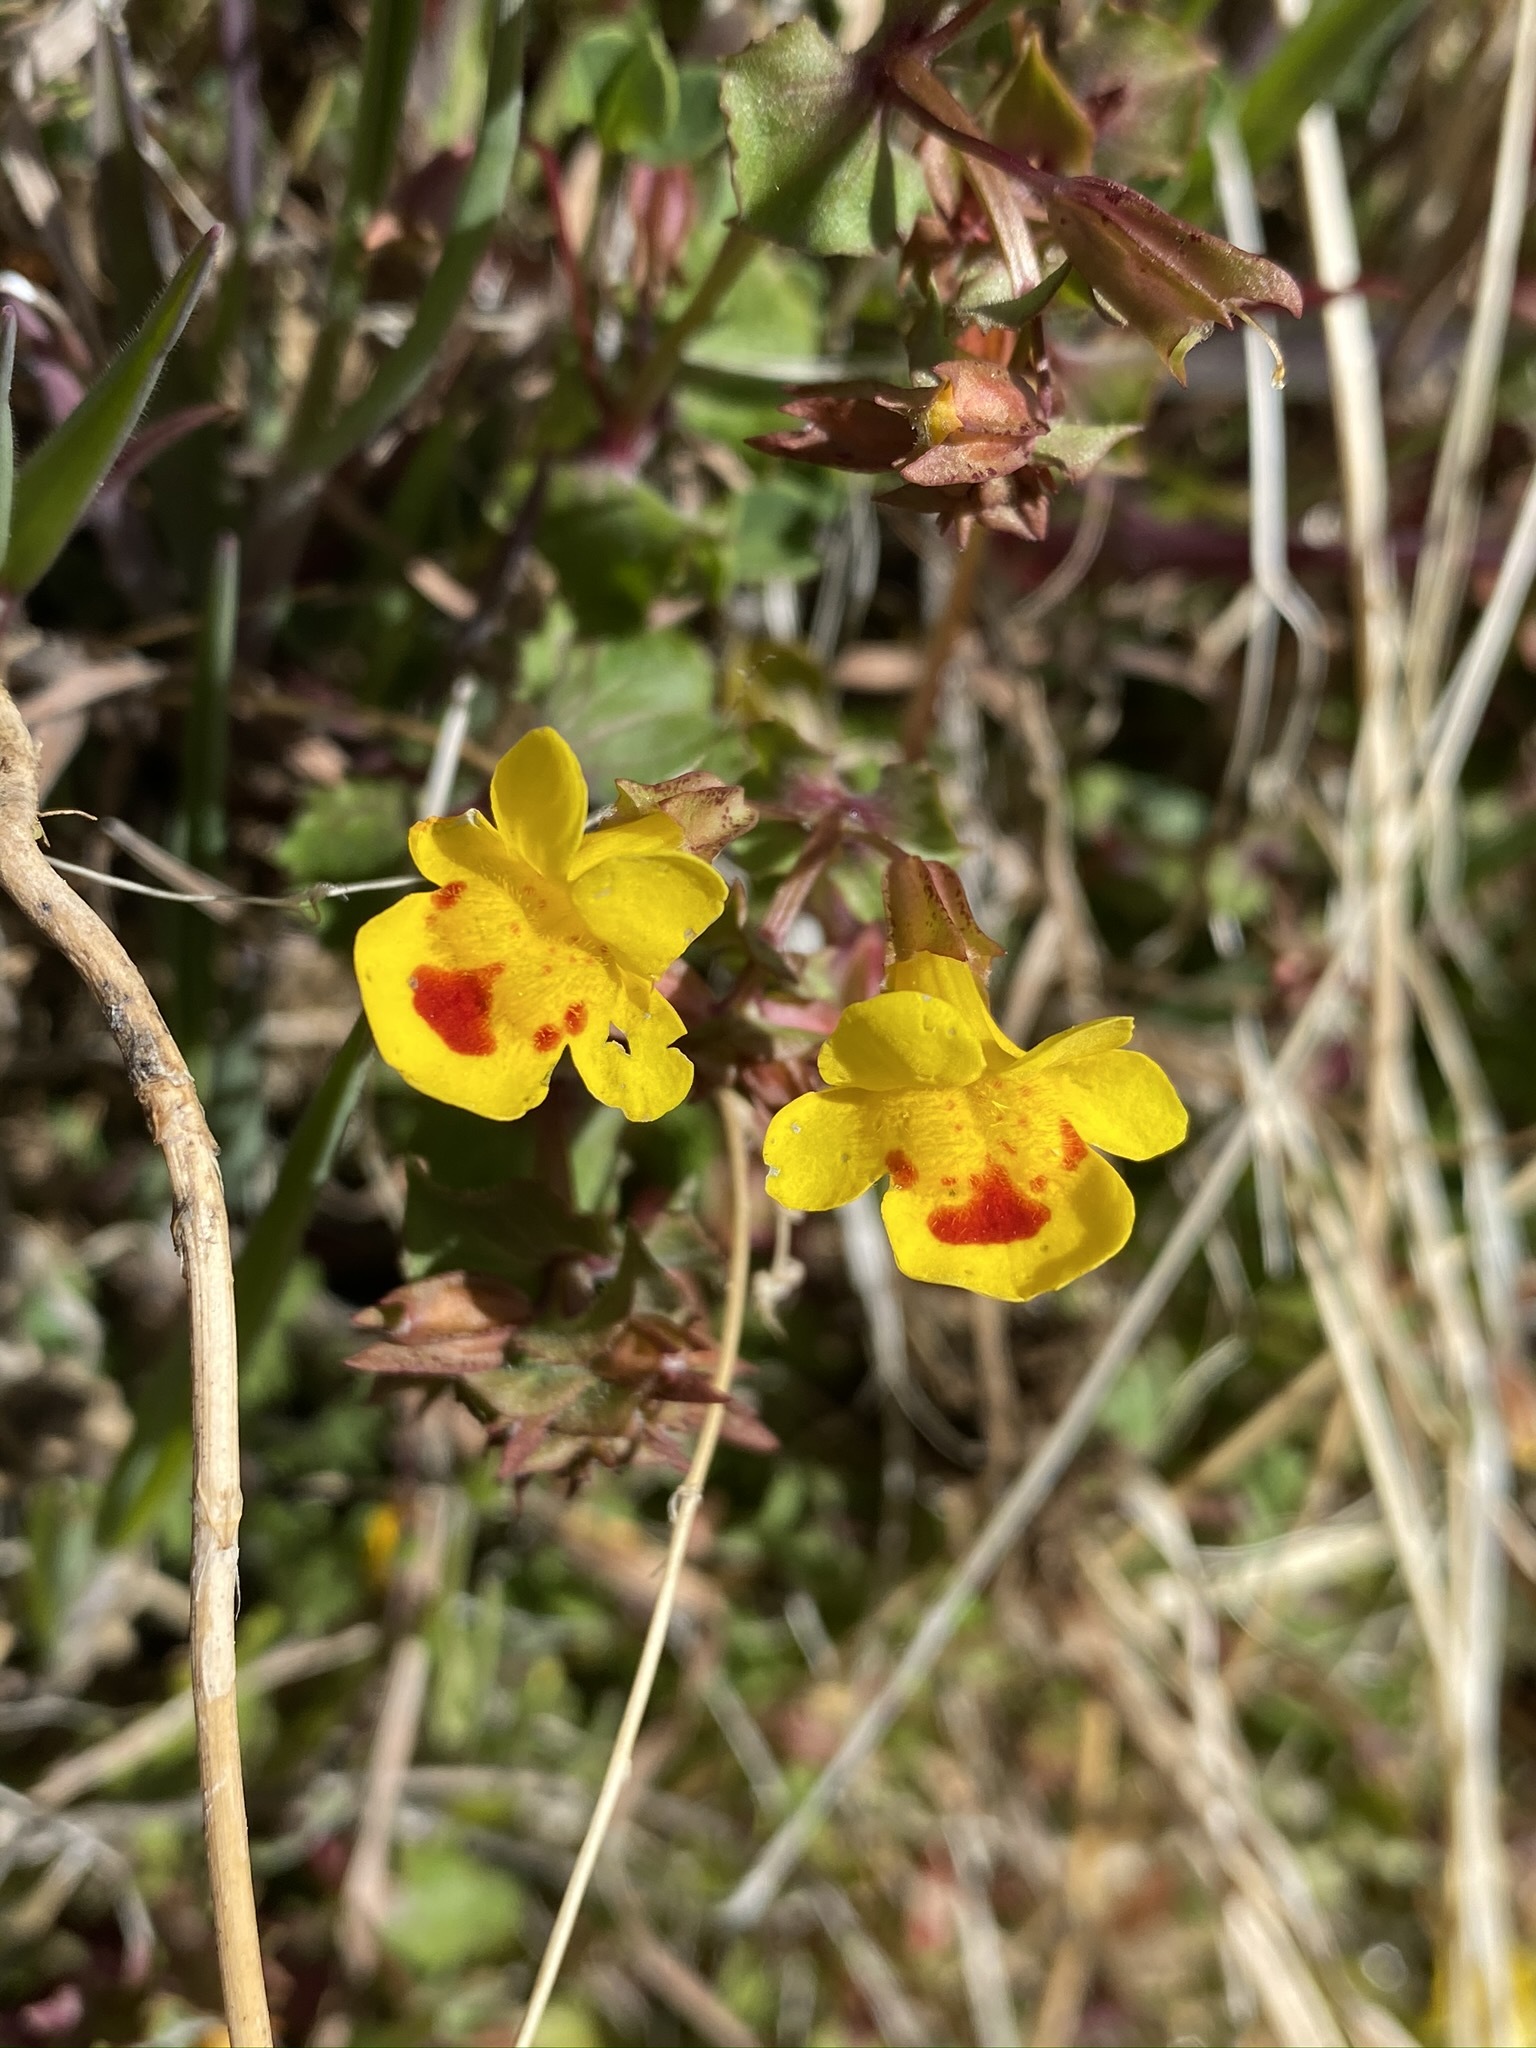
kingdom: Plantae
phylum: Tracheophyta
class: Magnoliopsida
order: Lamiales
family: Phrymaceae
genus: Erythranthe
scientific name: Erythranthe nasuta
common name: Sooke monkeyflower
